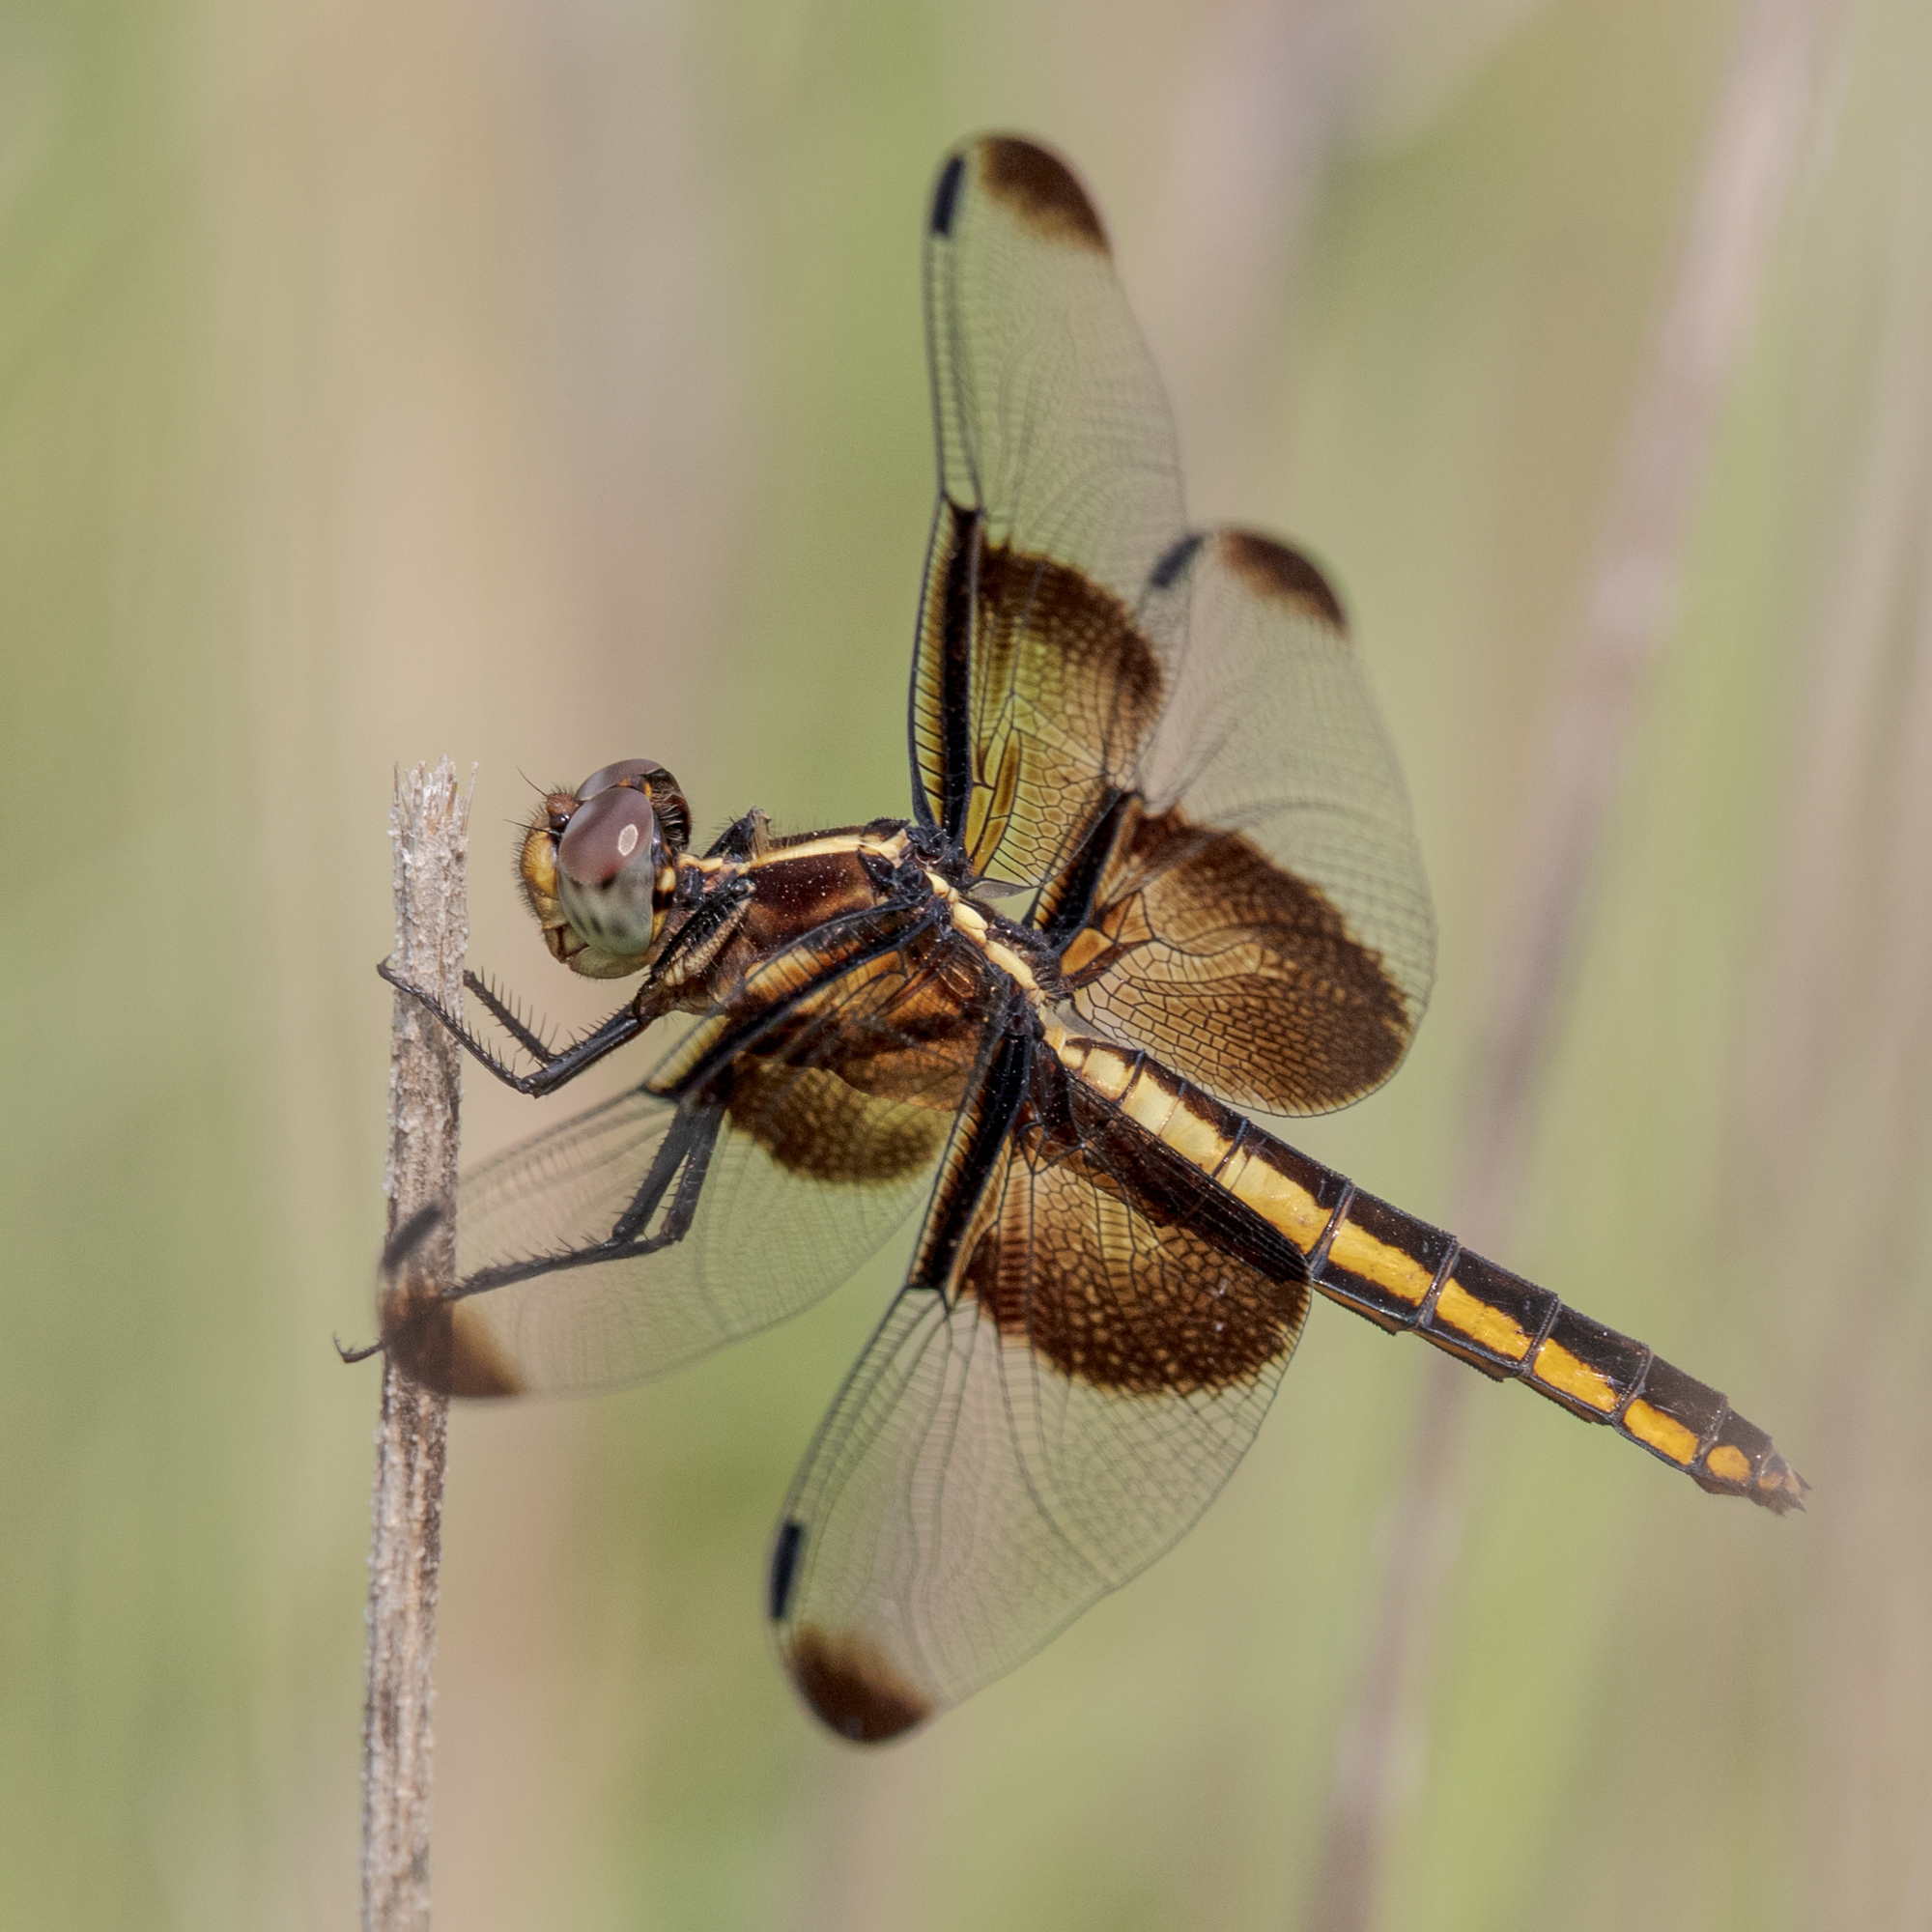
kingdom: Animalia
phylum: Arthropoda
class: Insecta
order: Odonata
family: Libellulidae
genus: Libellula
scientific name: Libellula luctuosa
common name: Widow skimmer
